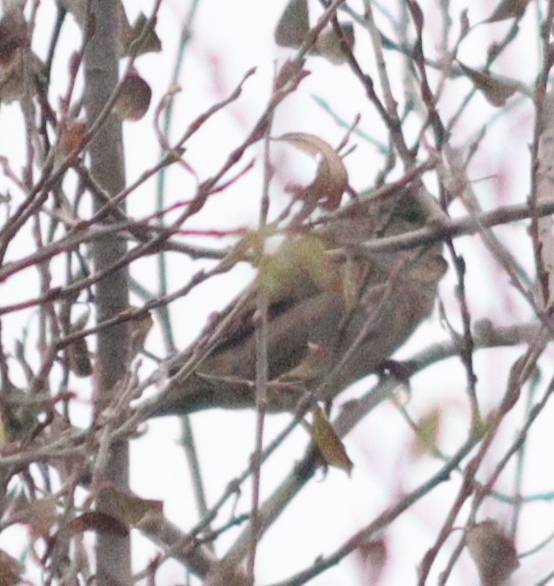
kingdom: Animalia
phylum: Chordata
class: Aves
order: Passeriformes
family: Passeridae
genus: Passer
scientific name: Passer domesticus
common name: House sparrow
